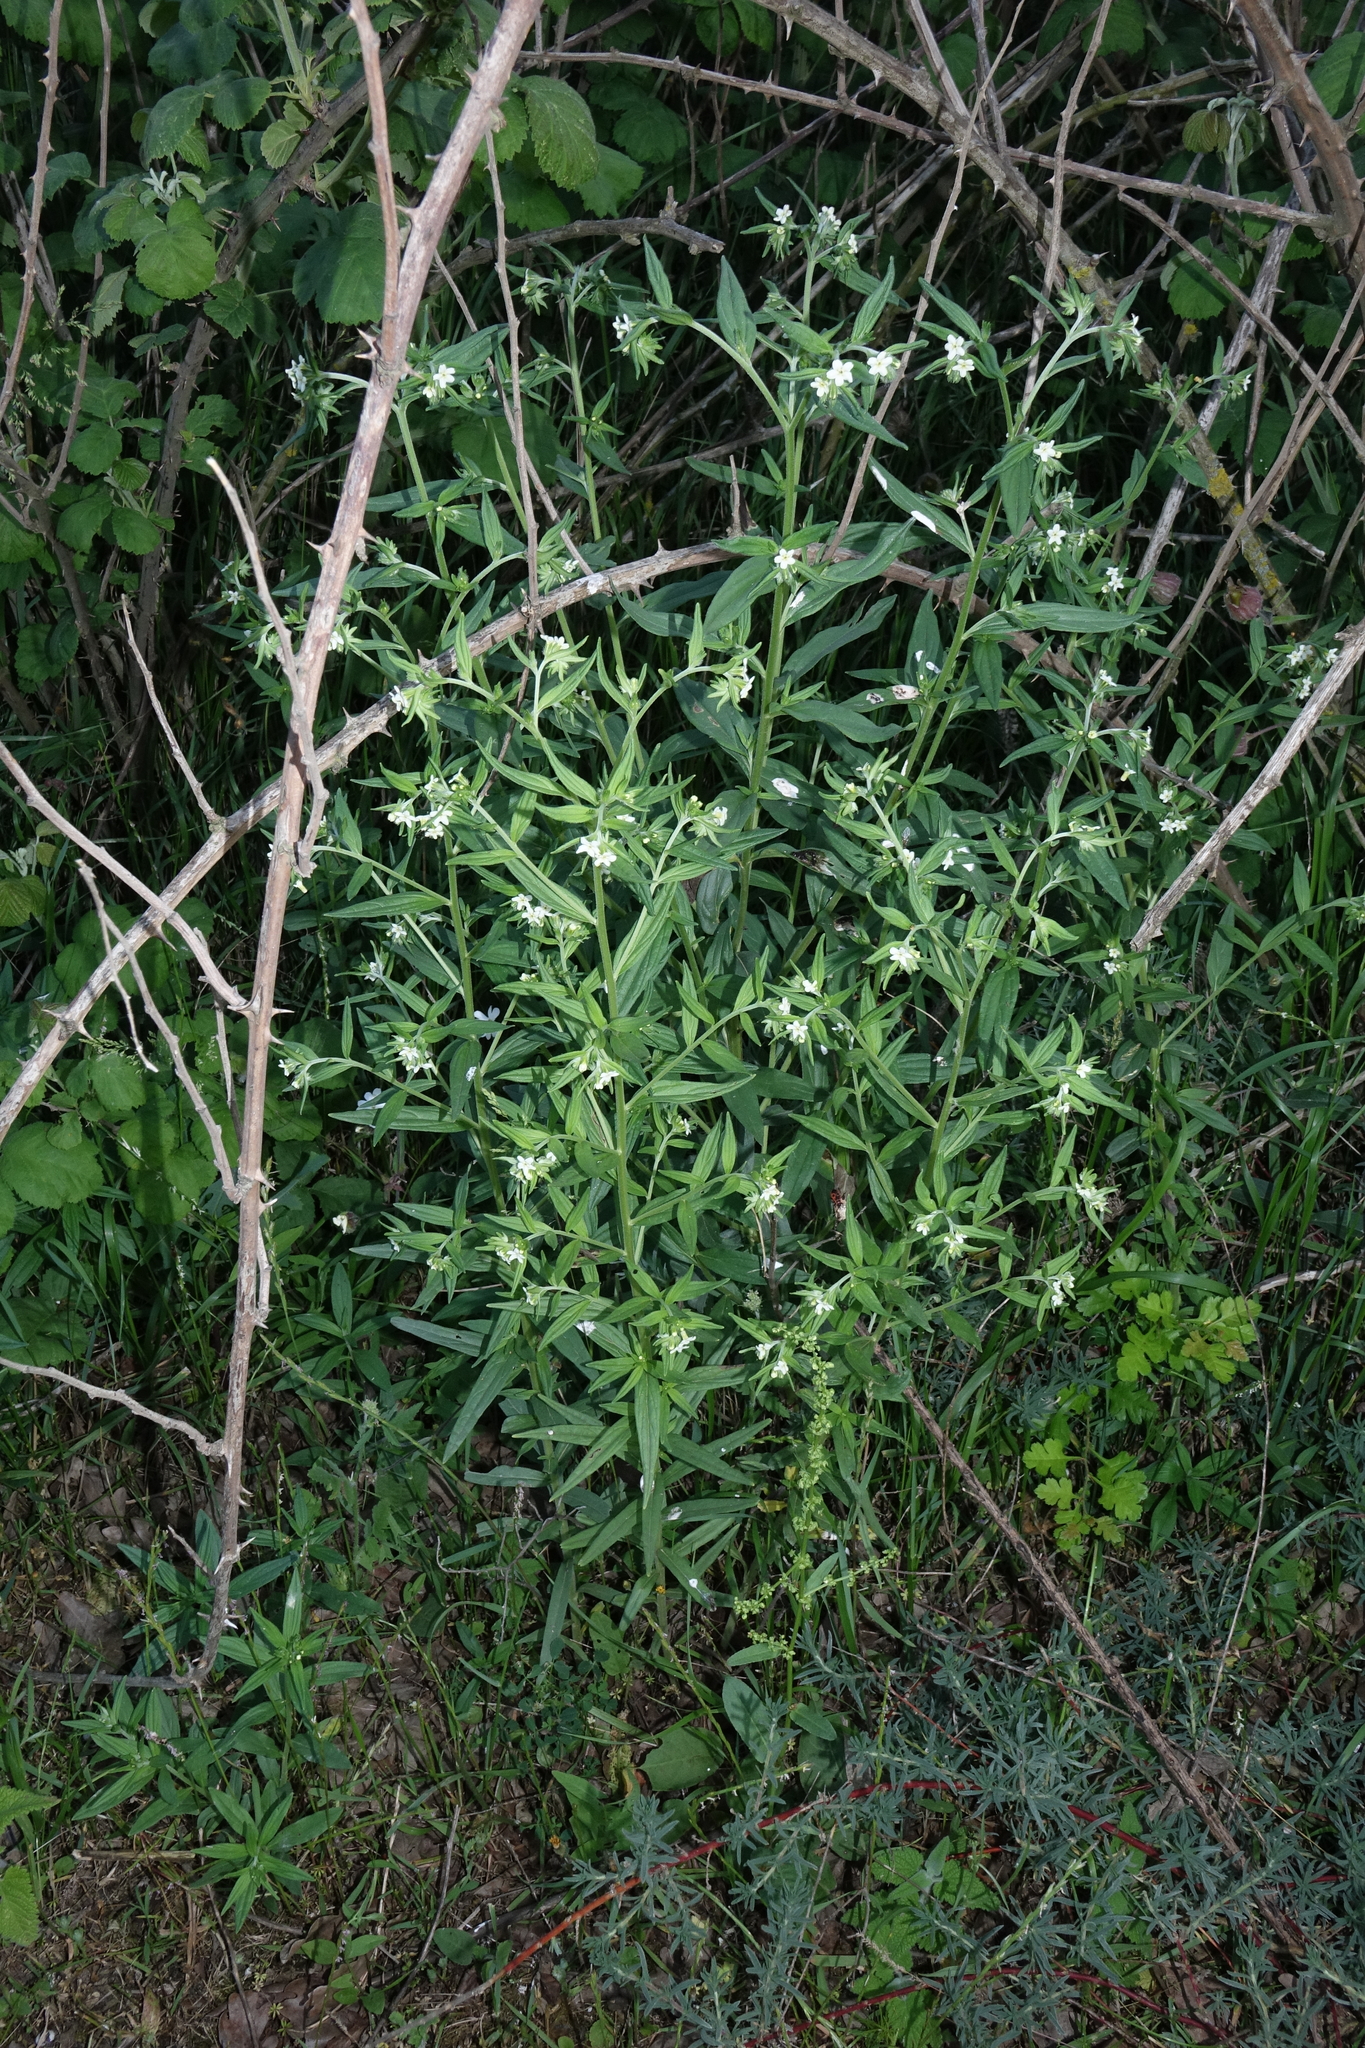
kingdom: Plantae
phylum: Tracheophyta
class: Magnoliopsida
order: Boraginales
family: Boraginaceae
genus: Lithospermum
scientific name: Lithospermum officinale
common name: Common gromwell
